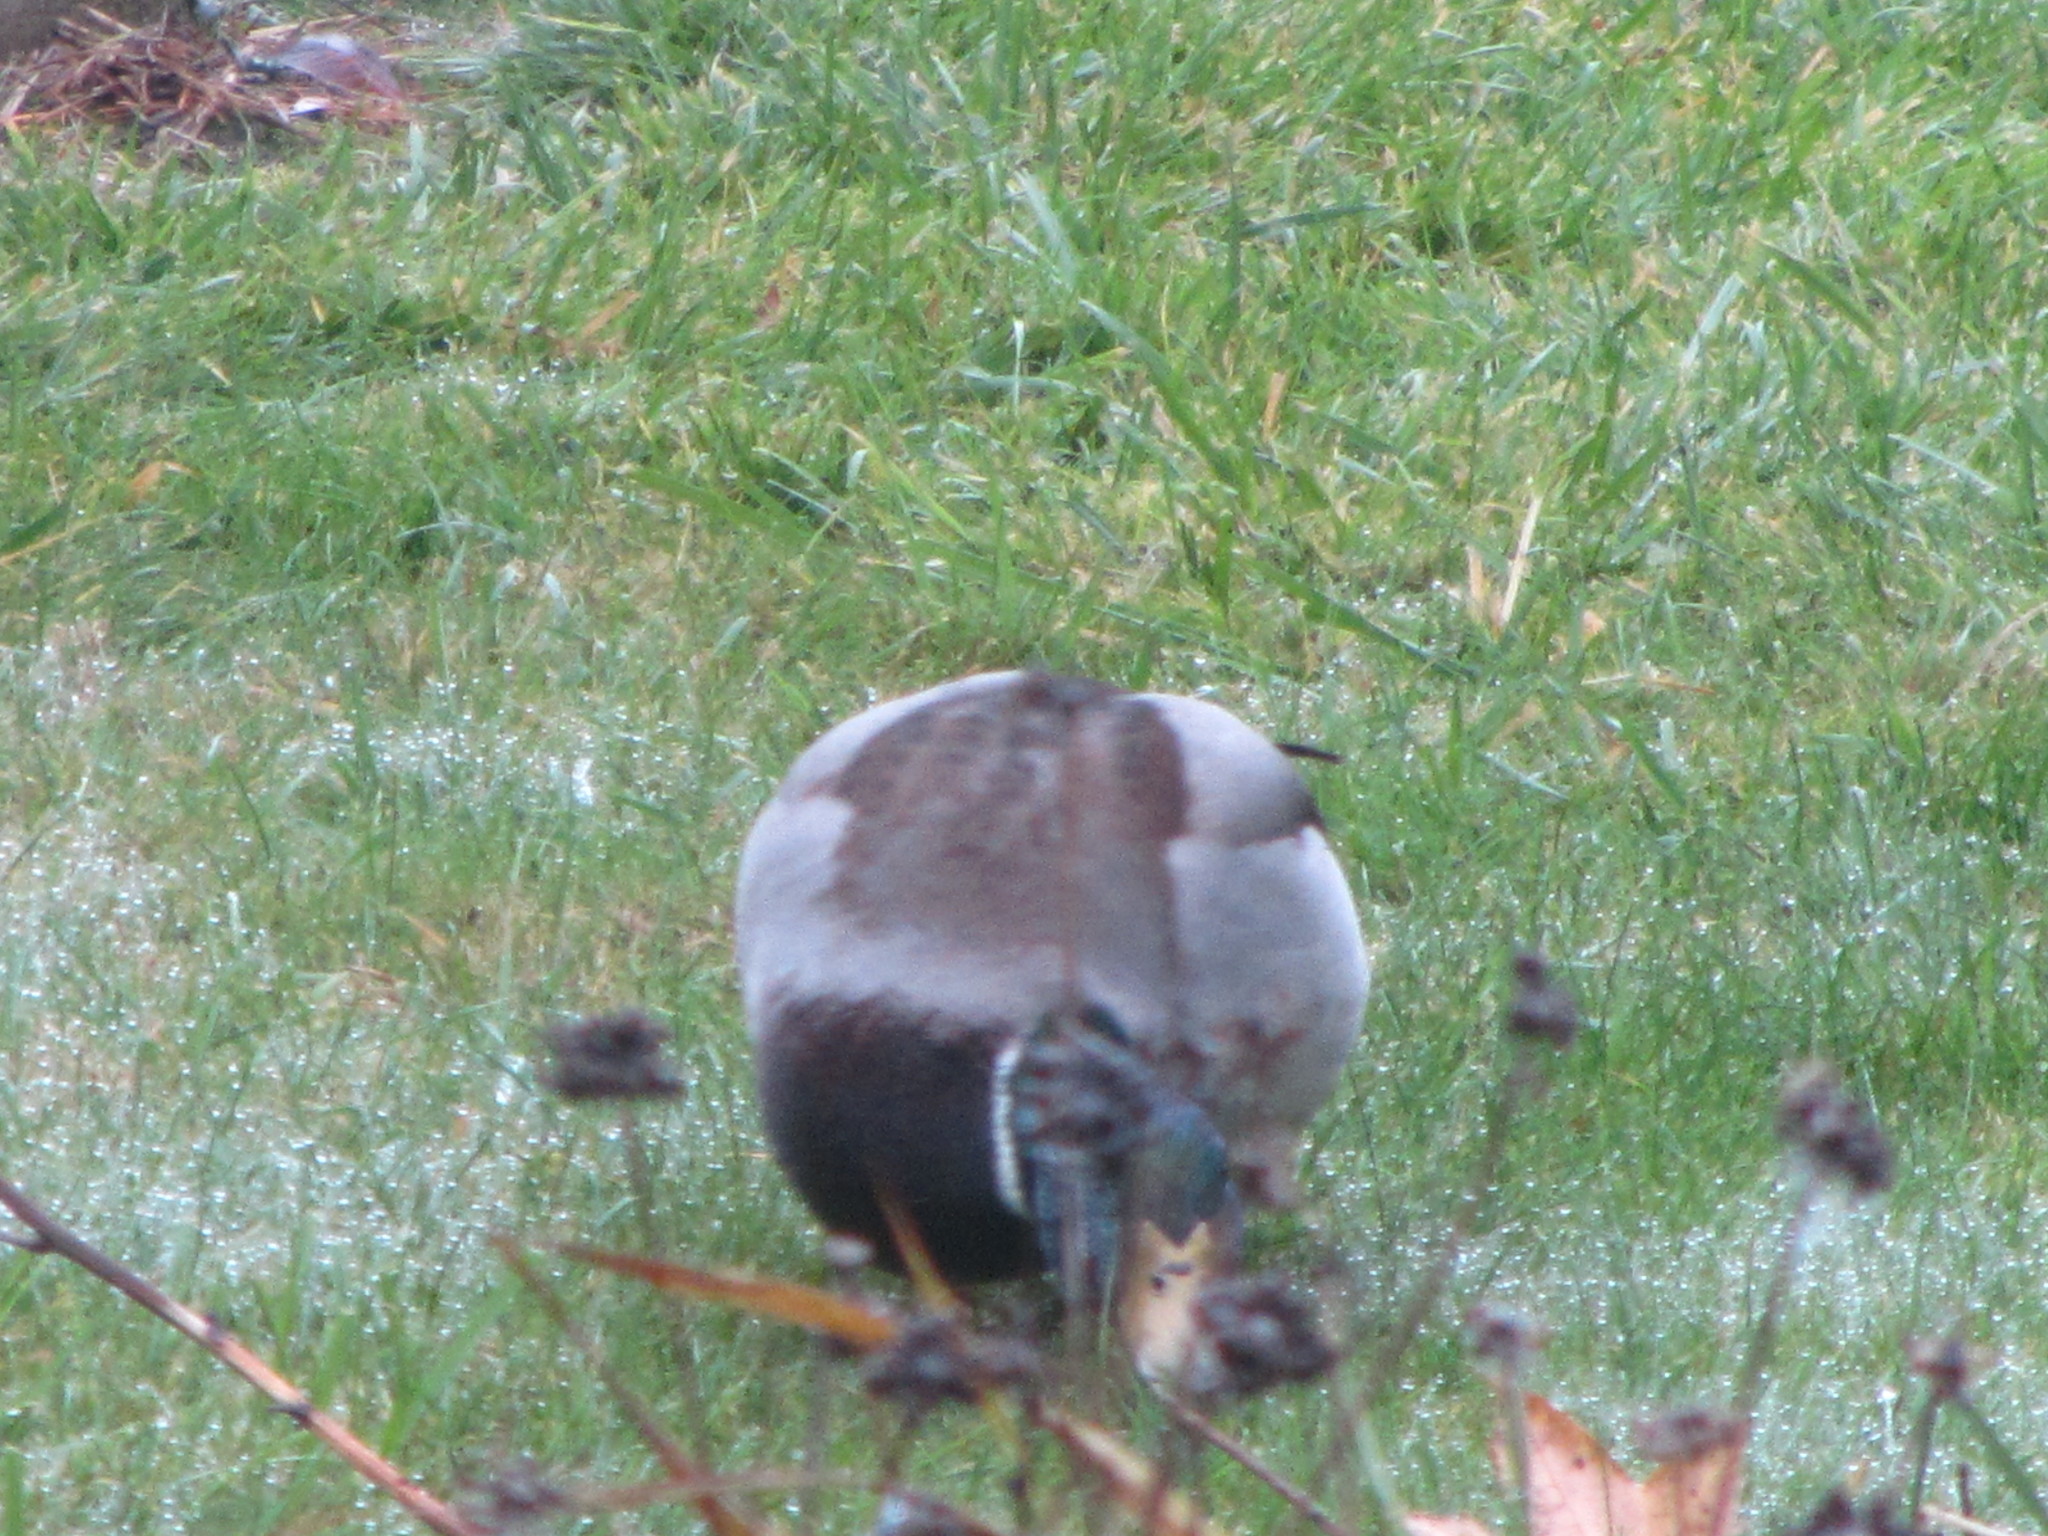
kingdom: Animalia
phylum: Chordata
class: Aves
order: Anseriformes
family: Anatidae
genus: Anas
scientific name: Anas platyrhynchos
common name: Mallard
